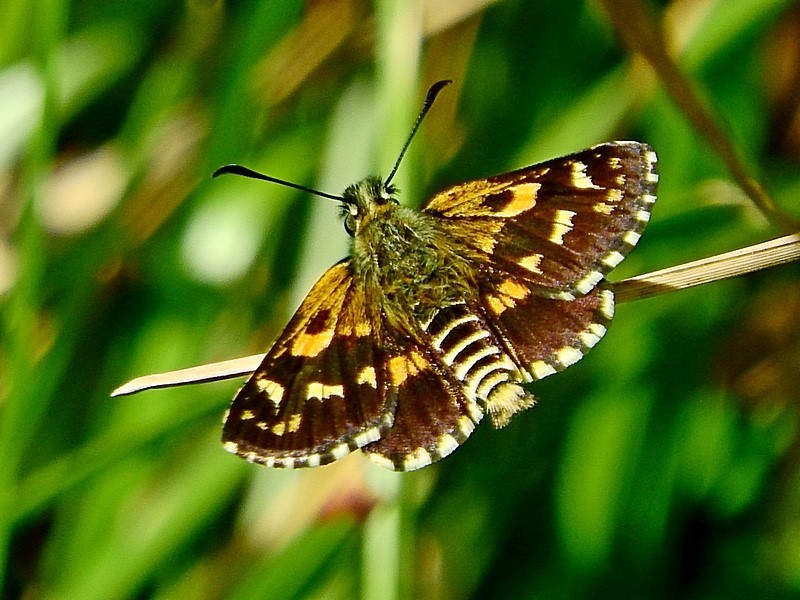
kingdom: Animalia
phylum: Arthropoda
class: Insecta
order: Lepidoptera
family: Hesperiidae
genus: Hesperilla
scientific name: Hesperilla crypsargyra
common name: Silver sedge-skipper
